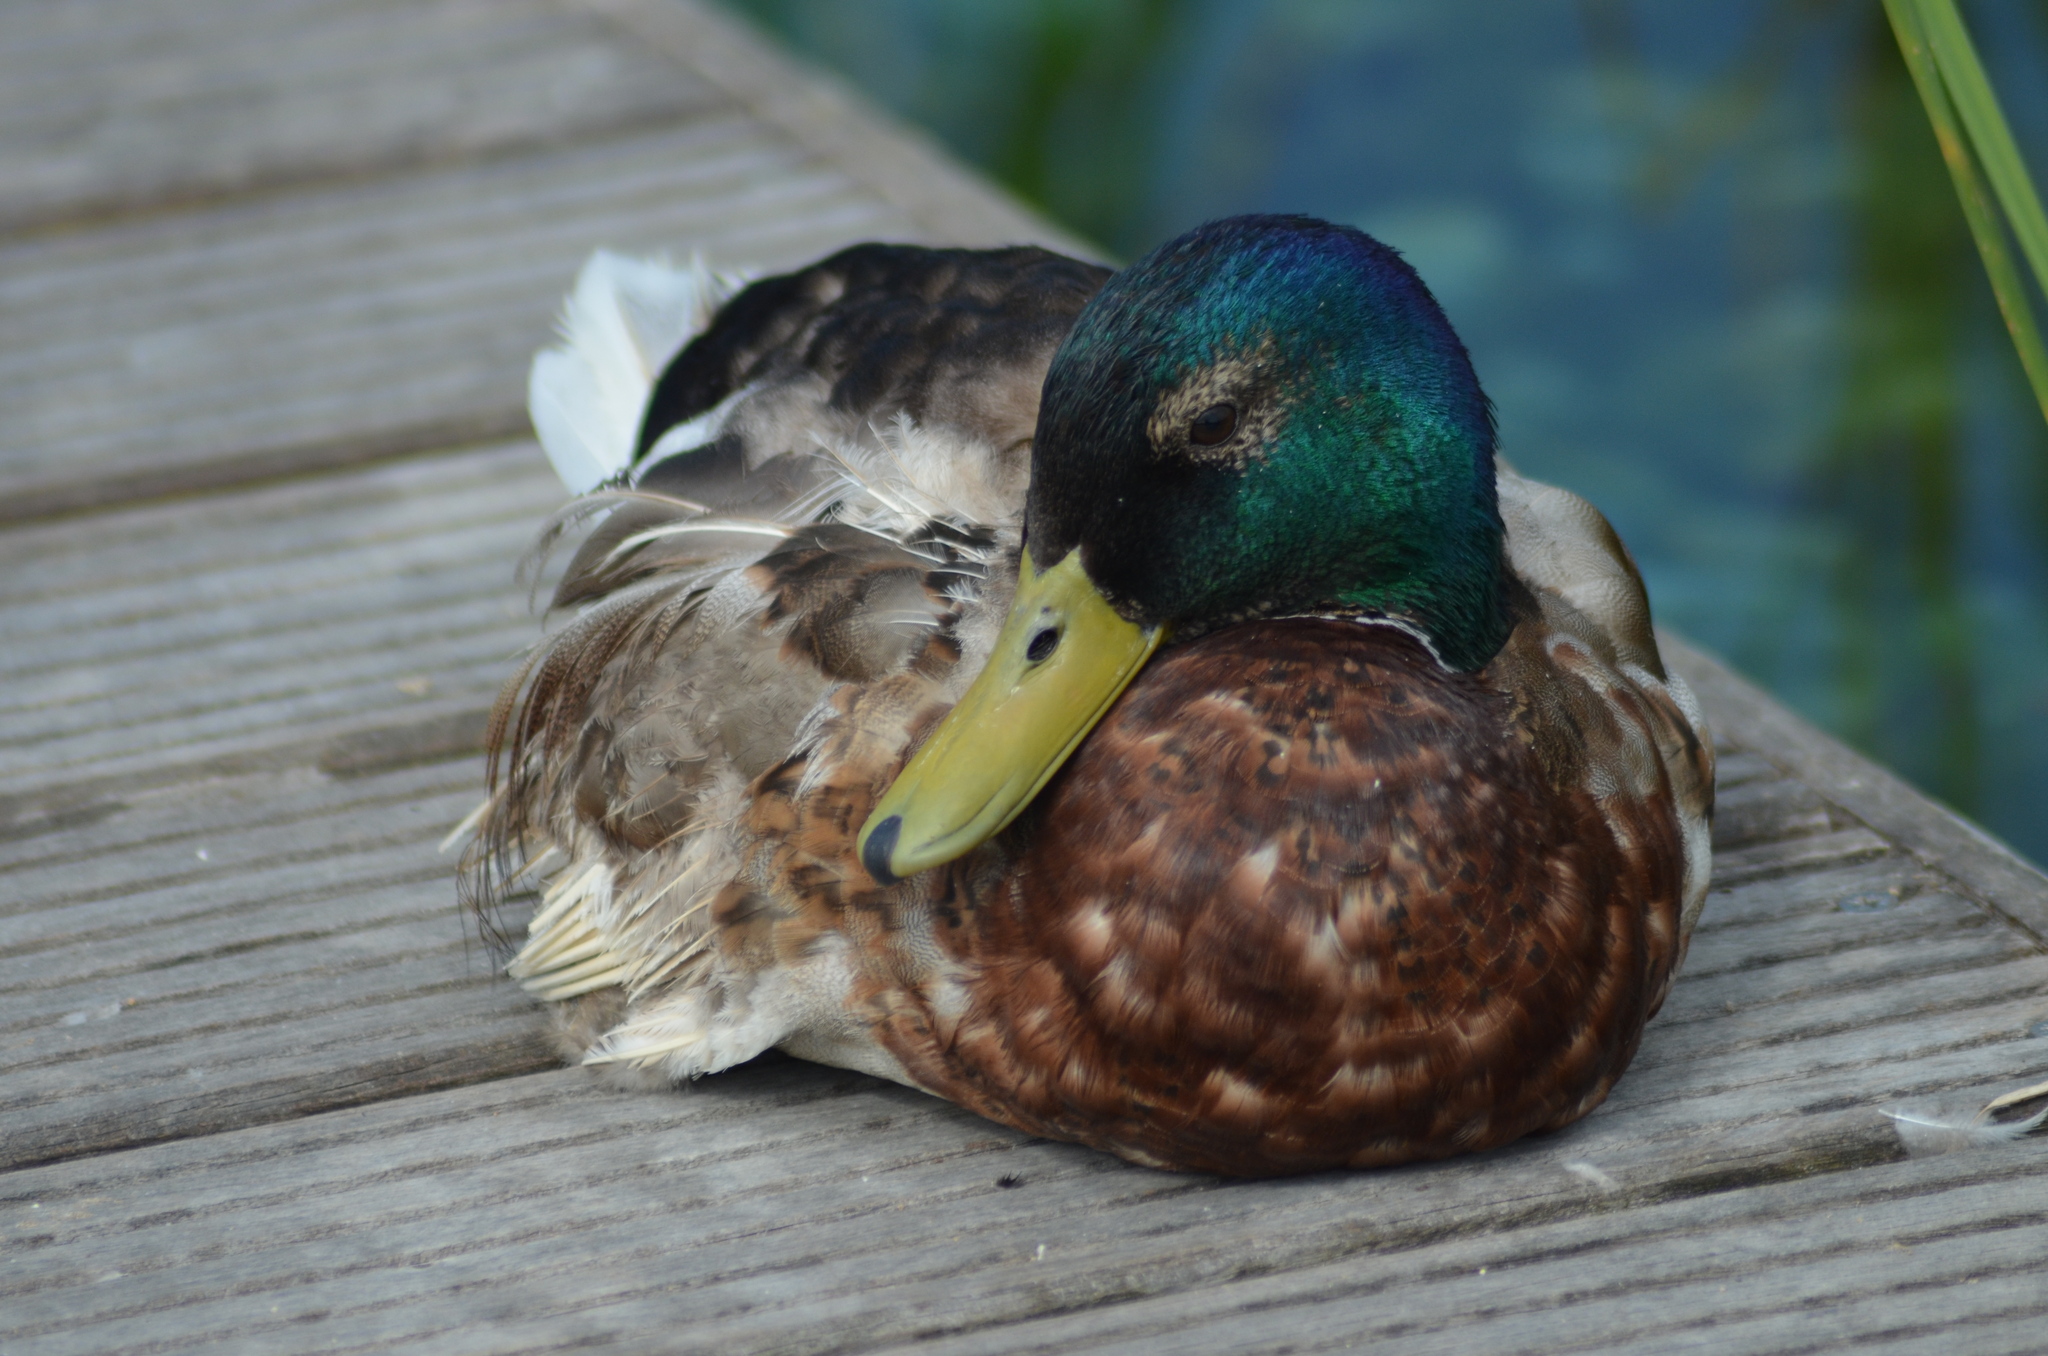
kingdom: Animalia
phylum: Chordata
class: Aves
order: Anseriformes
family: Anatidae
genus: Anas
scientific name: Anas platyrhynchos
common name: Mallard
